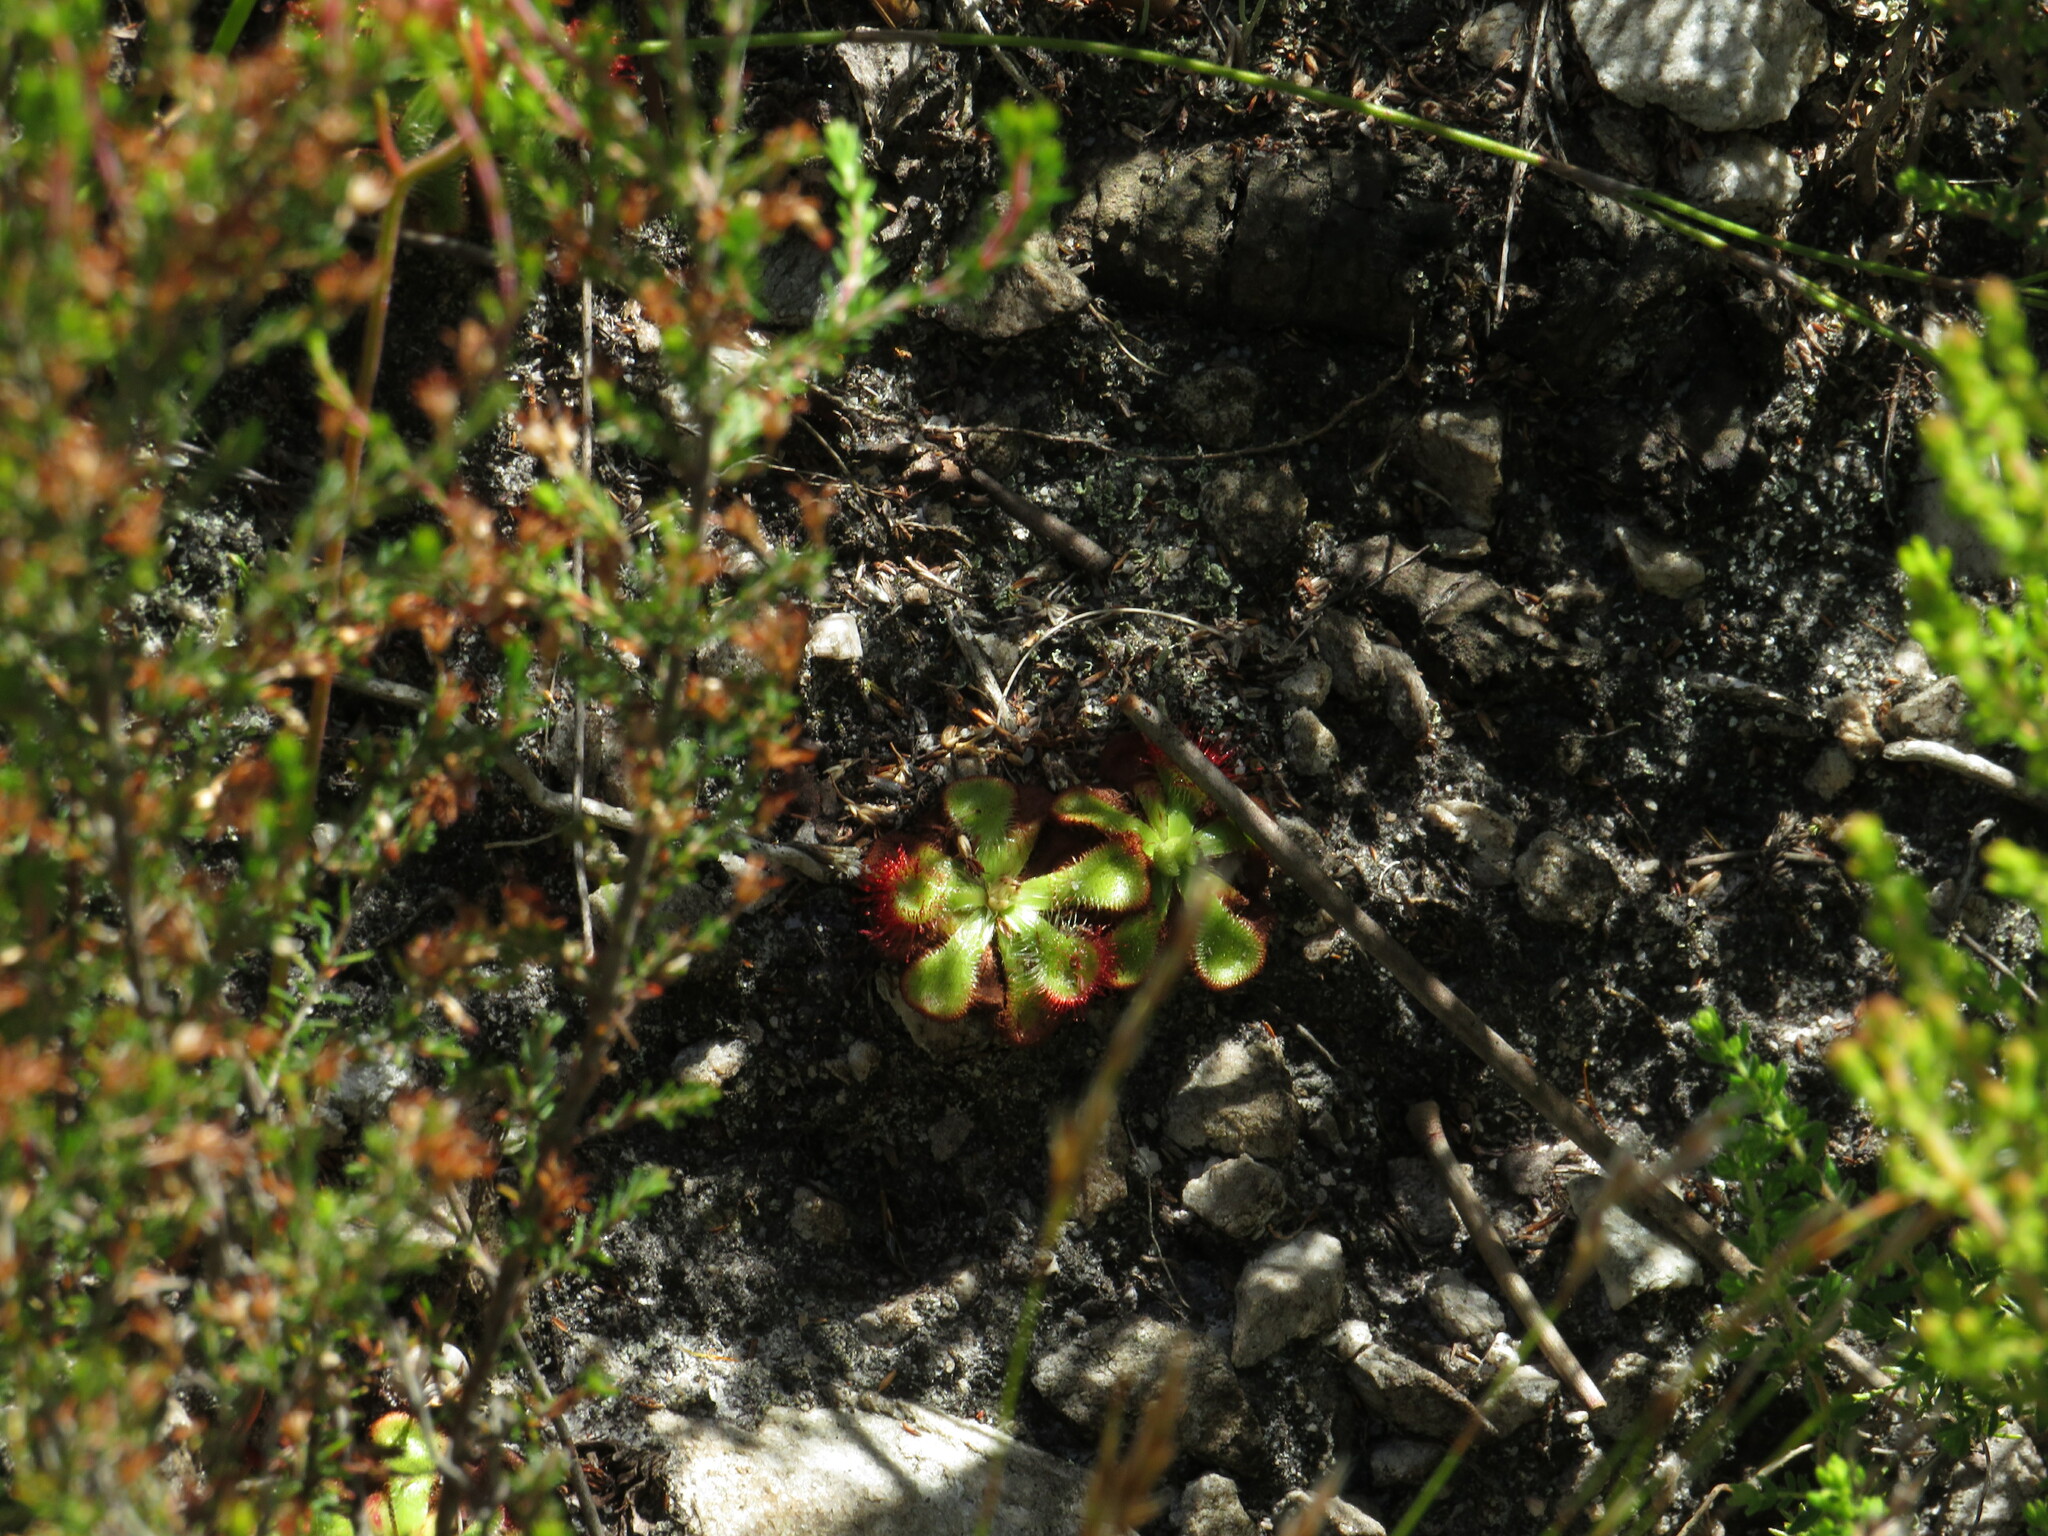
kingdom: Plantae
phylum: Tracheophyta
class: Magnoliopsida
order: Caryophyllales
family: Droseraceae
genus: Drosera
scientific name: Drosera xerophila
